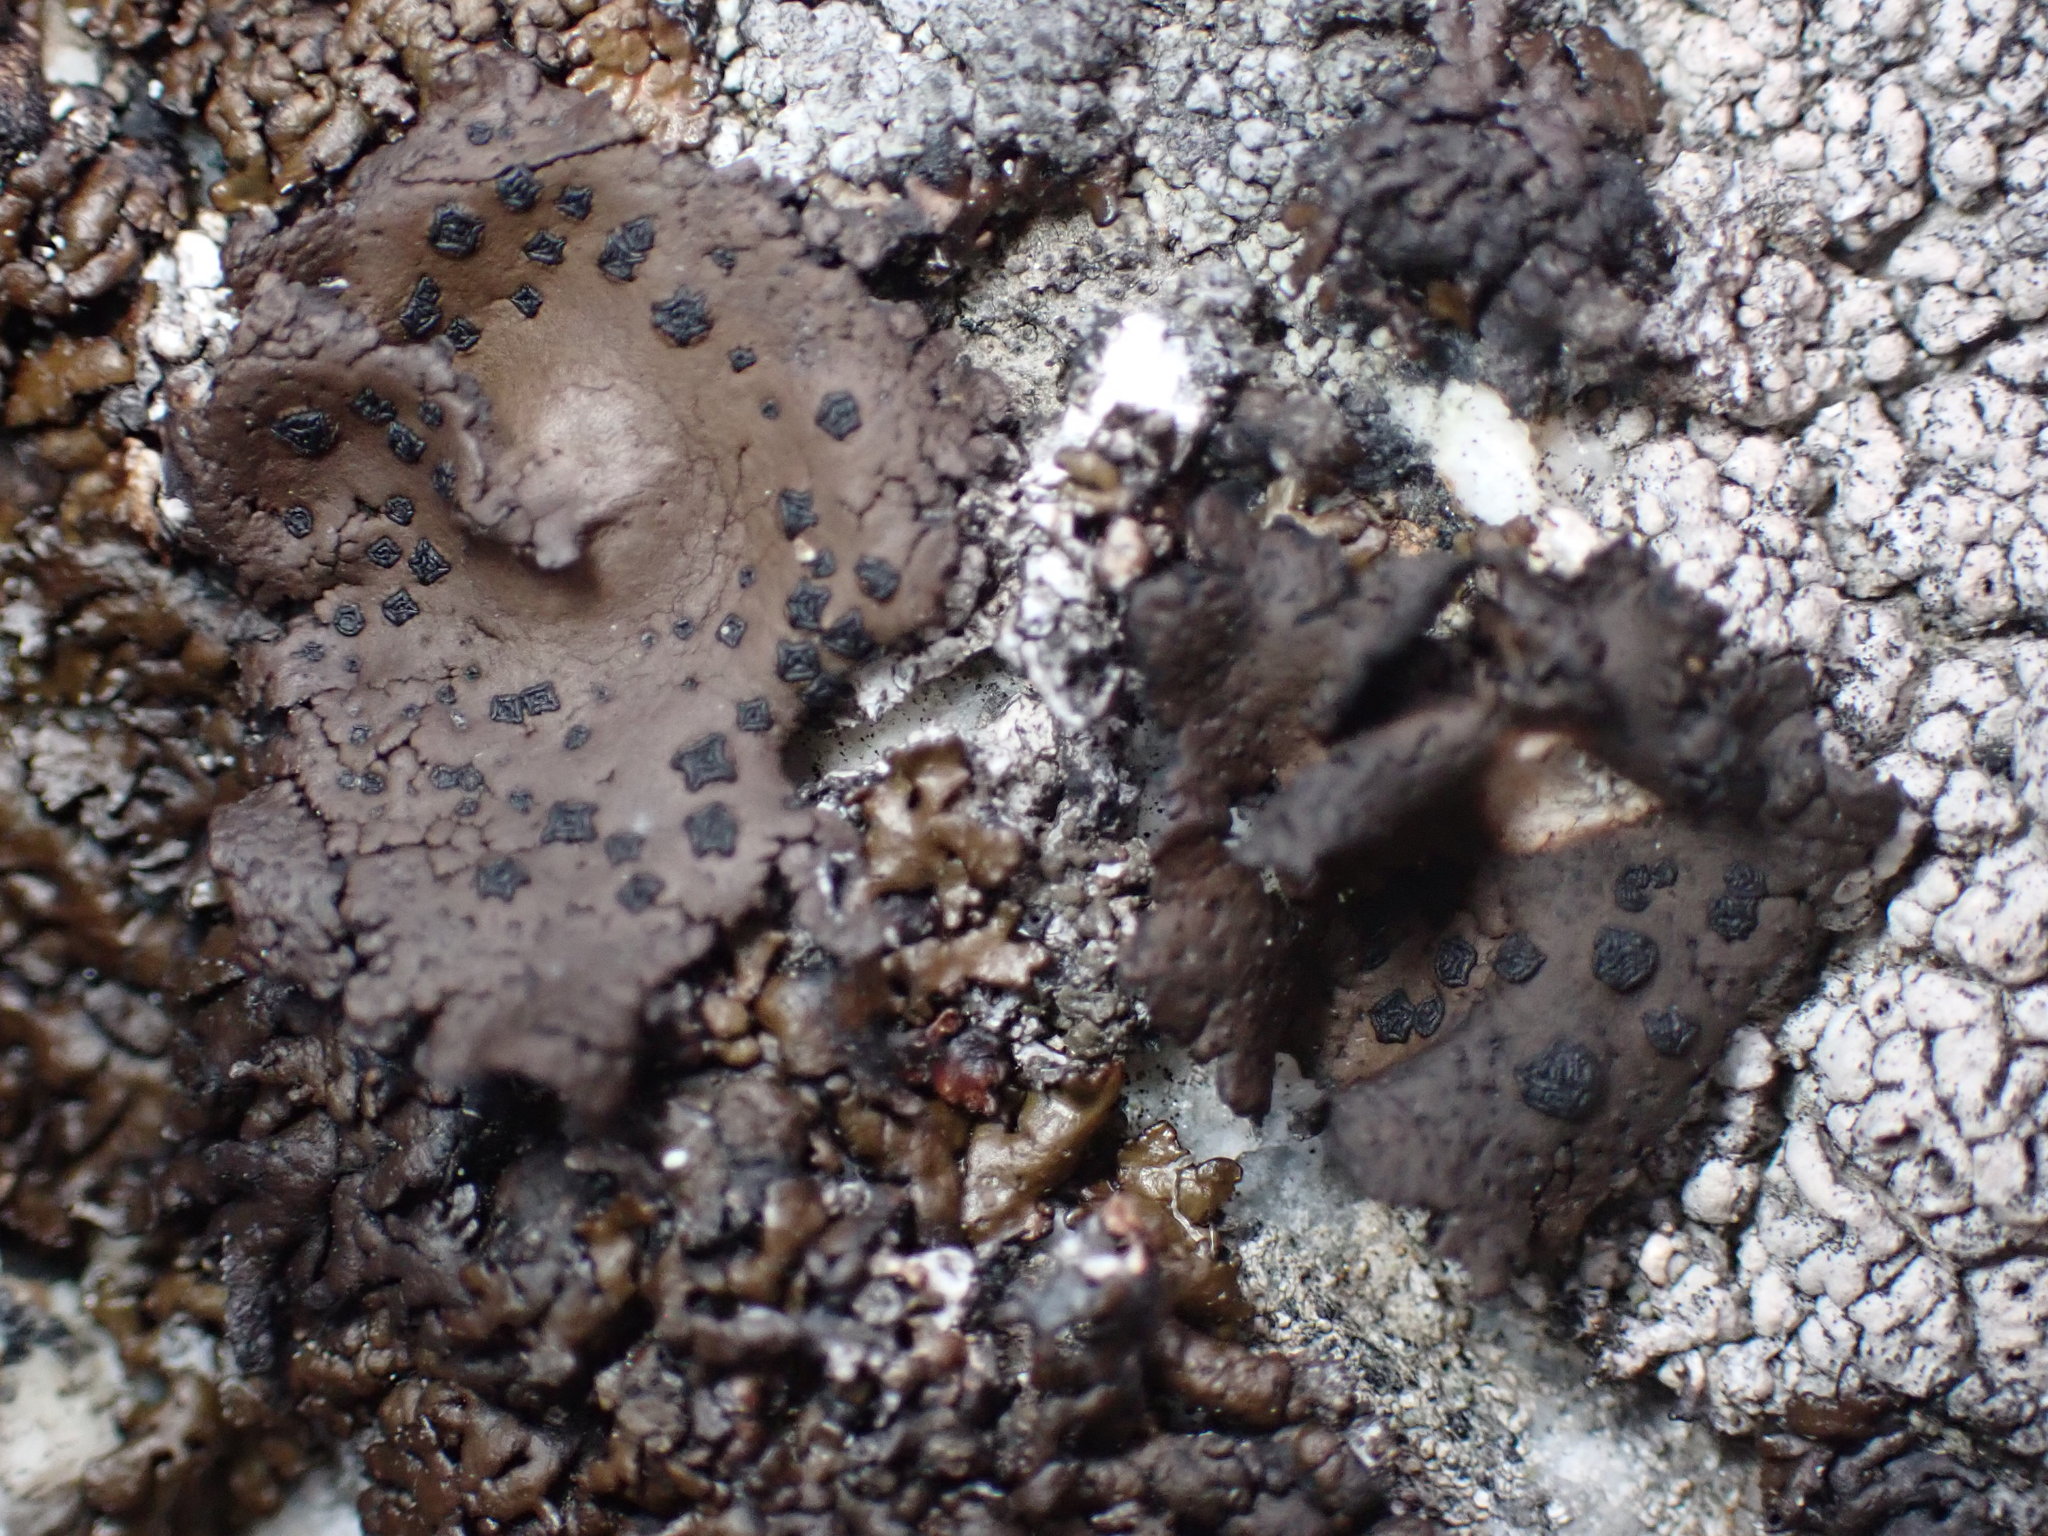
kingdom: Fungi
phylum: Ascomycota
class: Lecanoromycetes
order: Umbilicariales
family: Umbilicariaceae
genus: Umbilicaria
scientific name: Umbilicaria phaea
